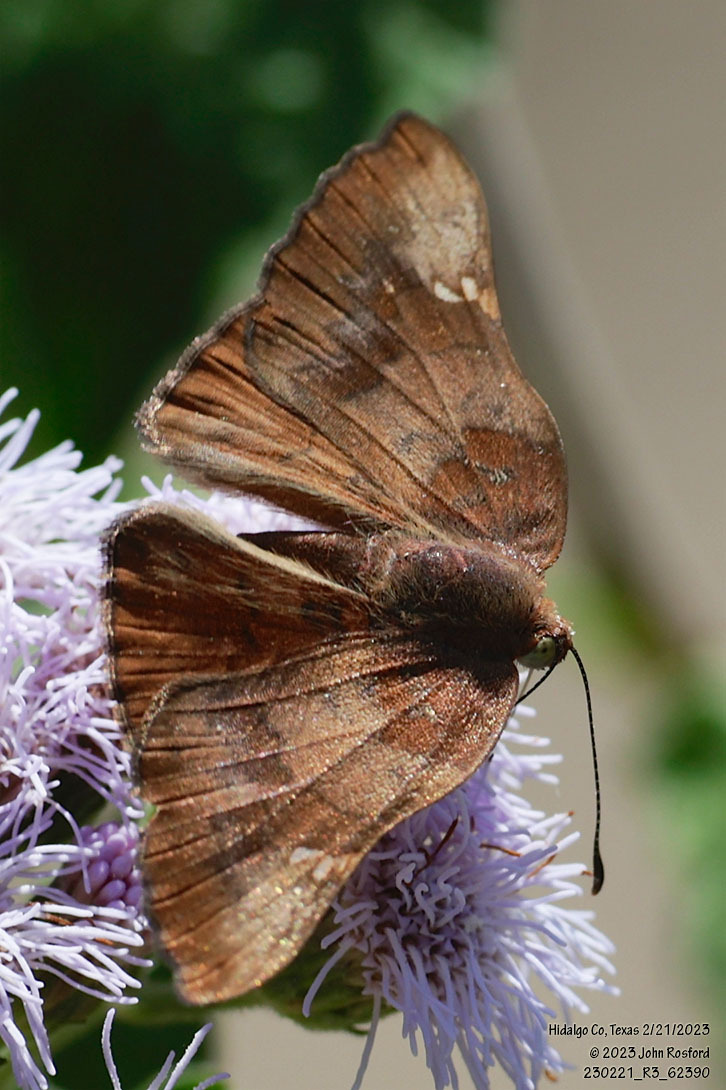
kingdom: Animalia
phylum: Arthropoda
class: Insecta
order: Lepidoptera
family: Riodinidae
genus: Curvie
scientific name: Curvie emesia
